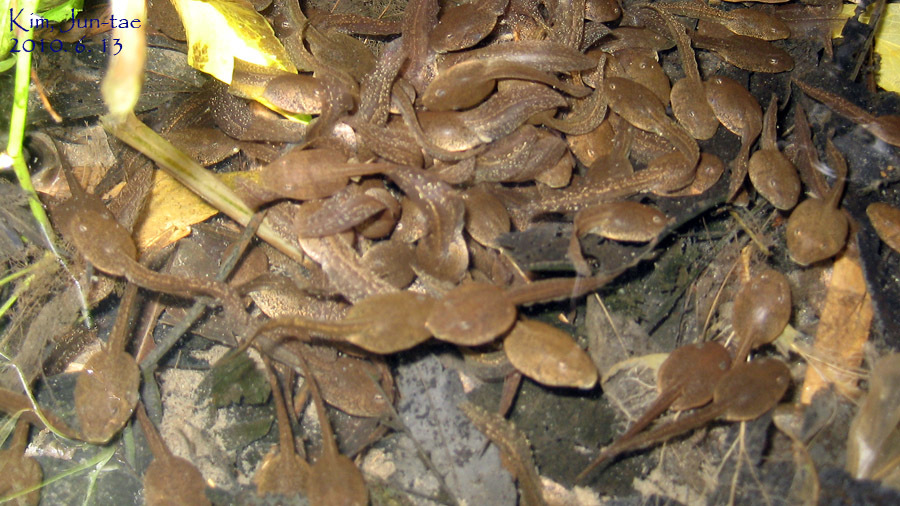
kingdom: Animalia
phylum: Chordata
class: Amphibia
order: Anura
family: Ranidae
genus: Rana
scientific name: Rana uenoi
